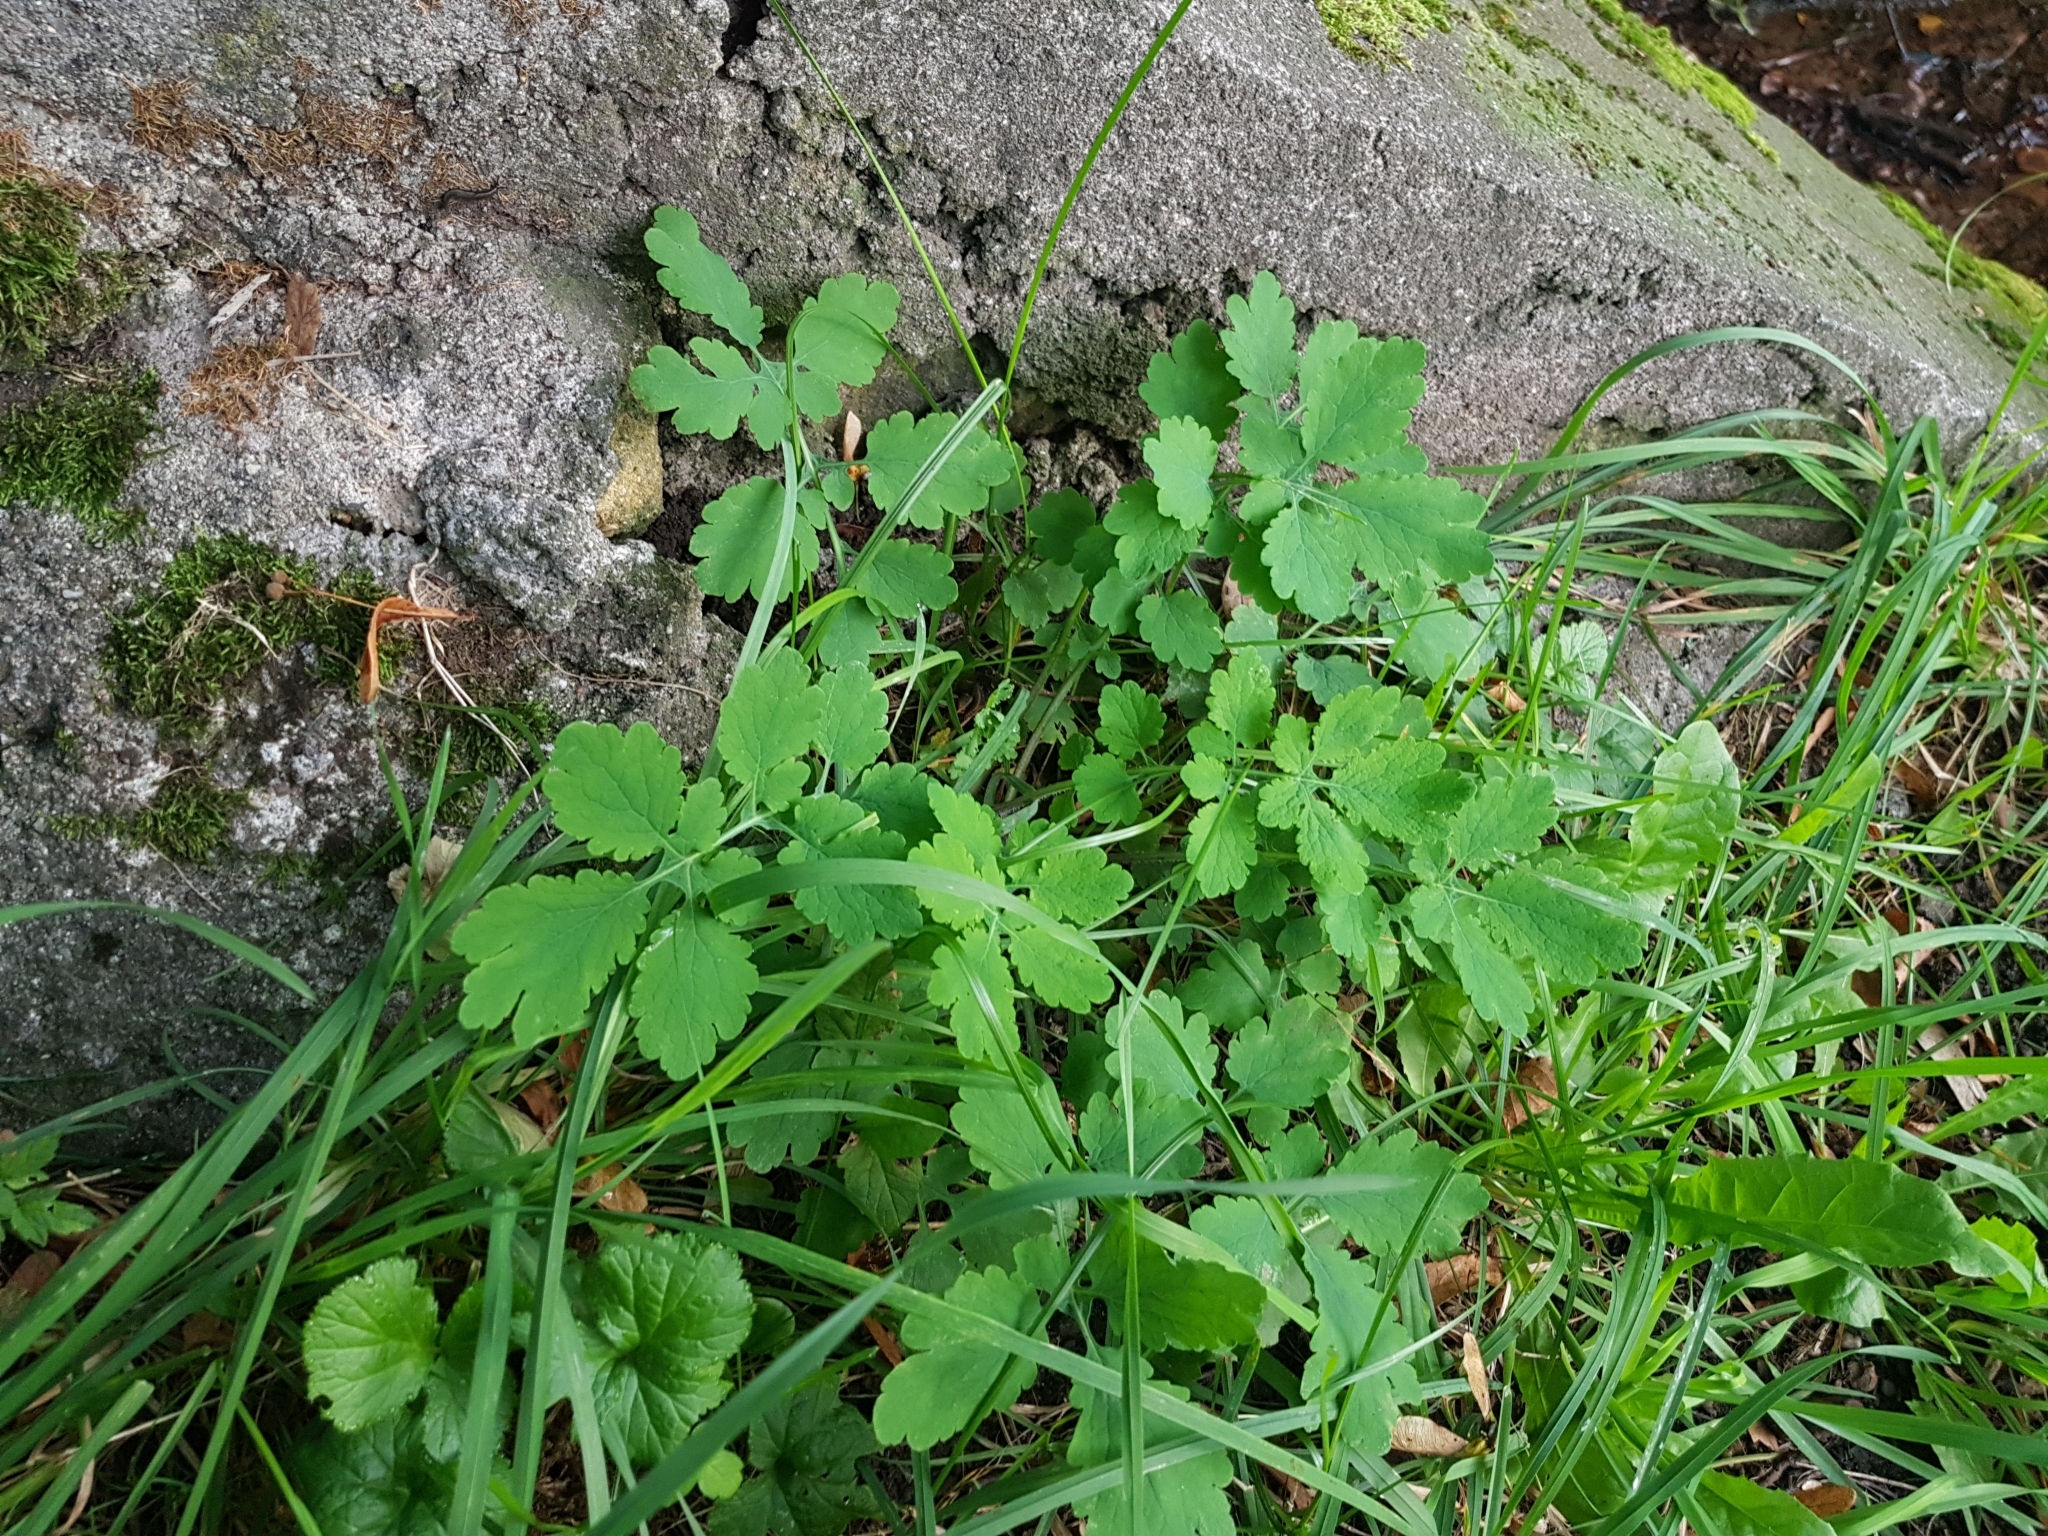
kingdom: Plantae
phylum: Tracheophyta
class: Magnoliopsida
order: Ranunculales
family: Papaveraceae
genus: Chelidonium
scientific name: Chelidonium majus
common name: Greater celandine
